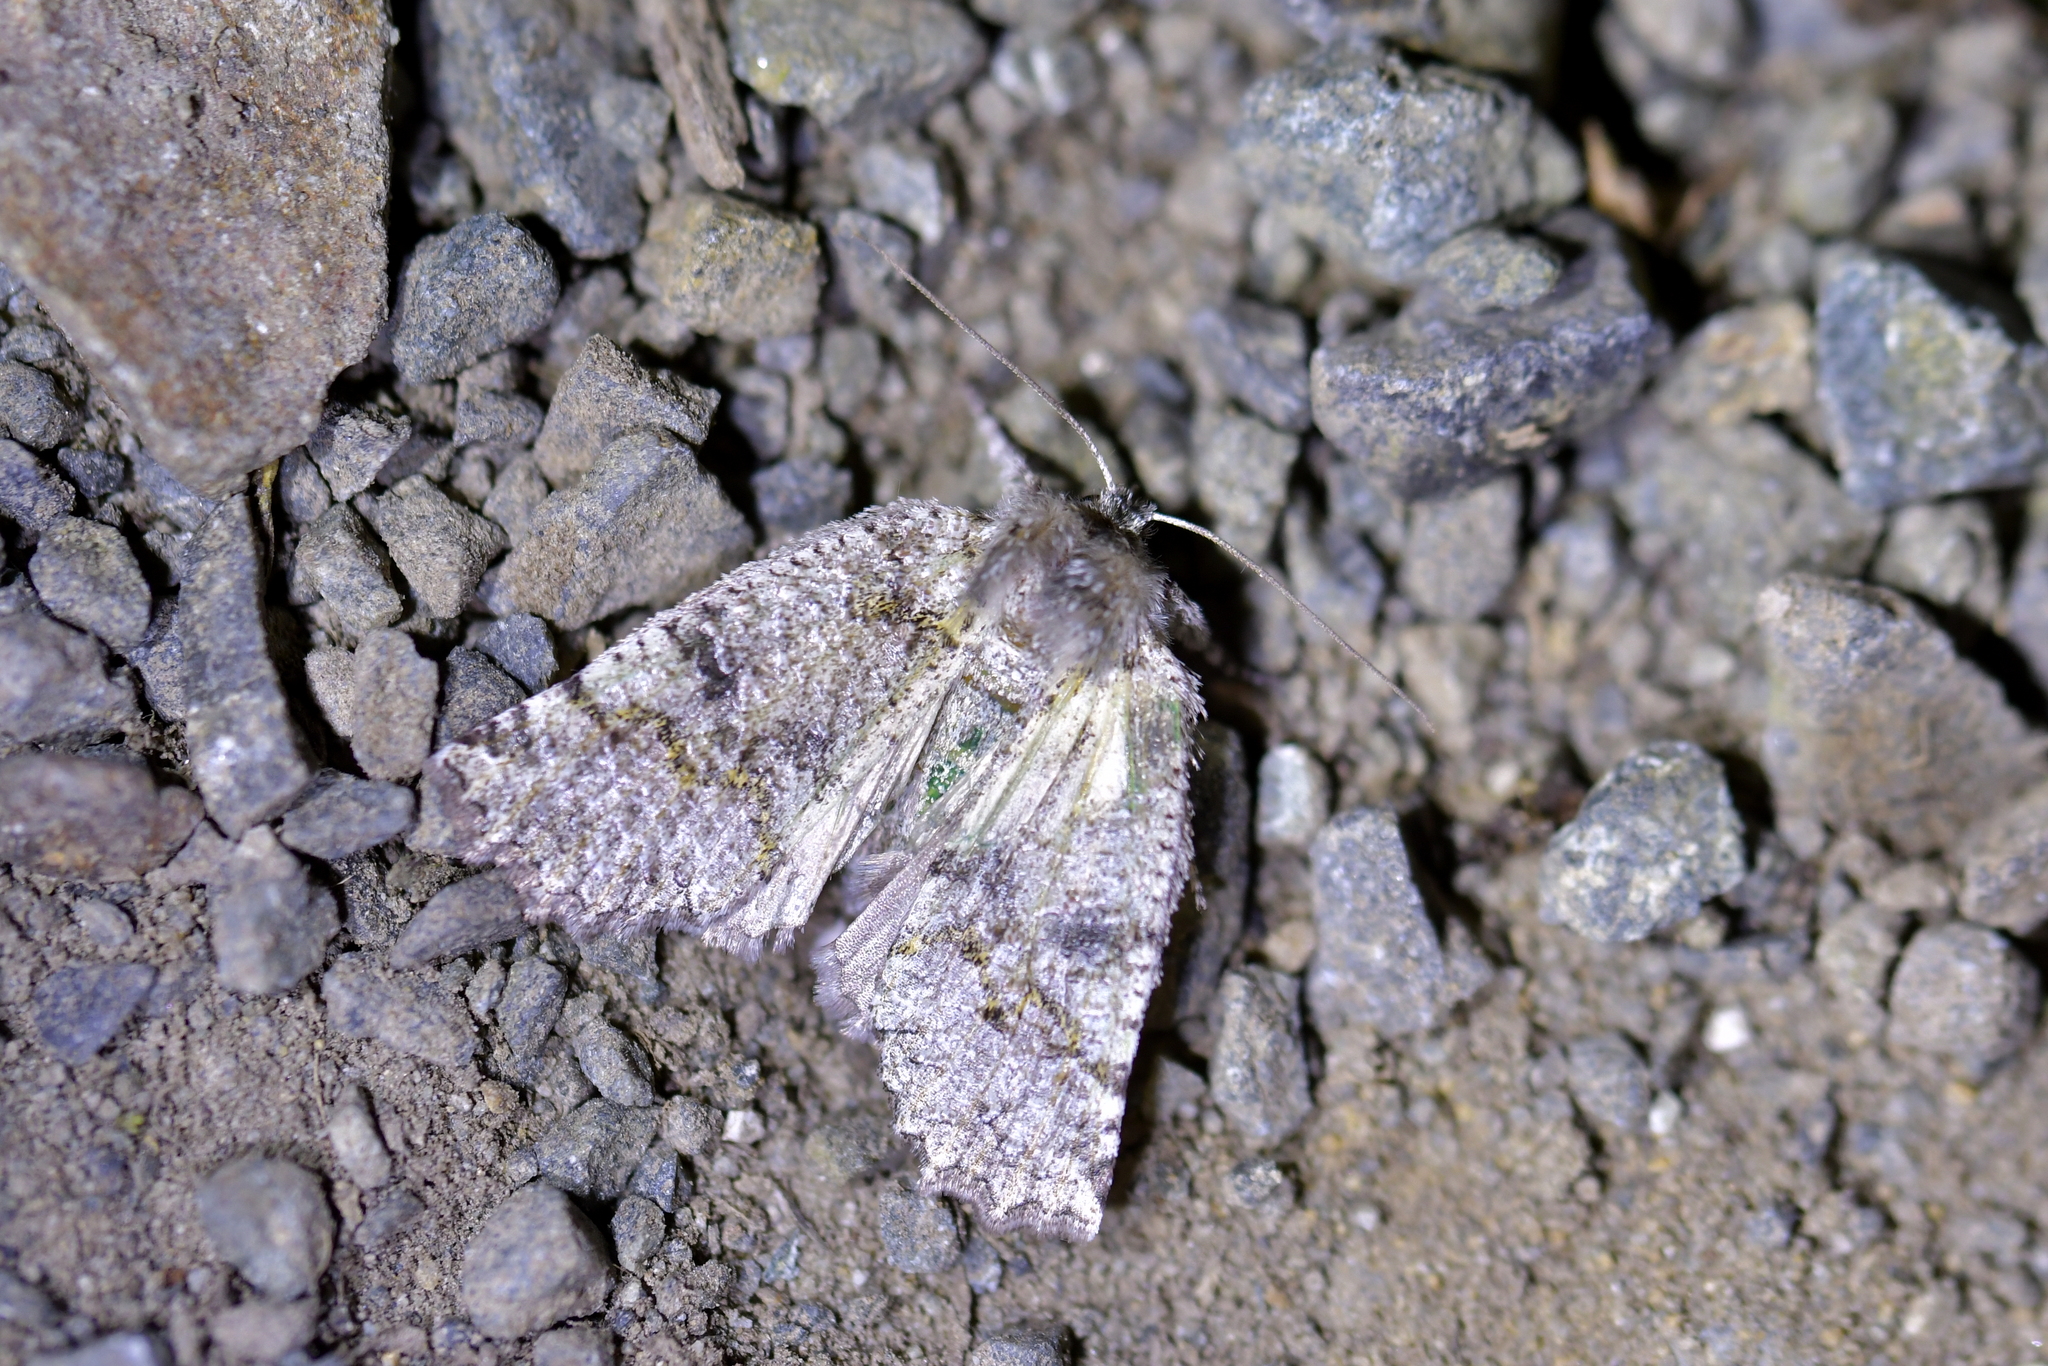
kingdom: Animalia
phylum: Arthropoda
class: Insecta
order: Lepidoptera
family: Geometridae
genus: Declana
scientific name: Declana floccosa
